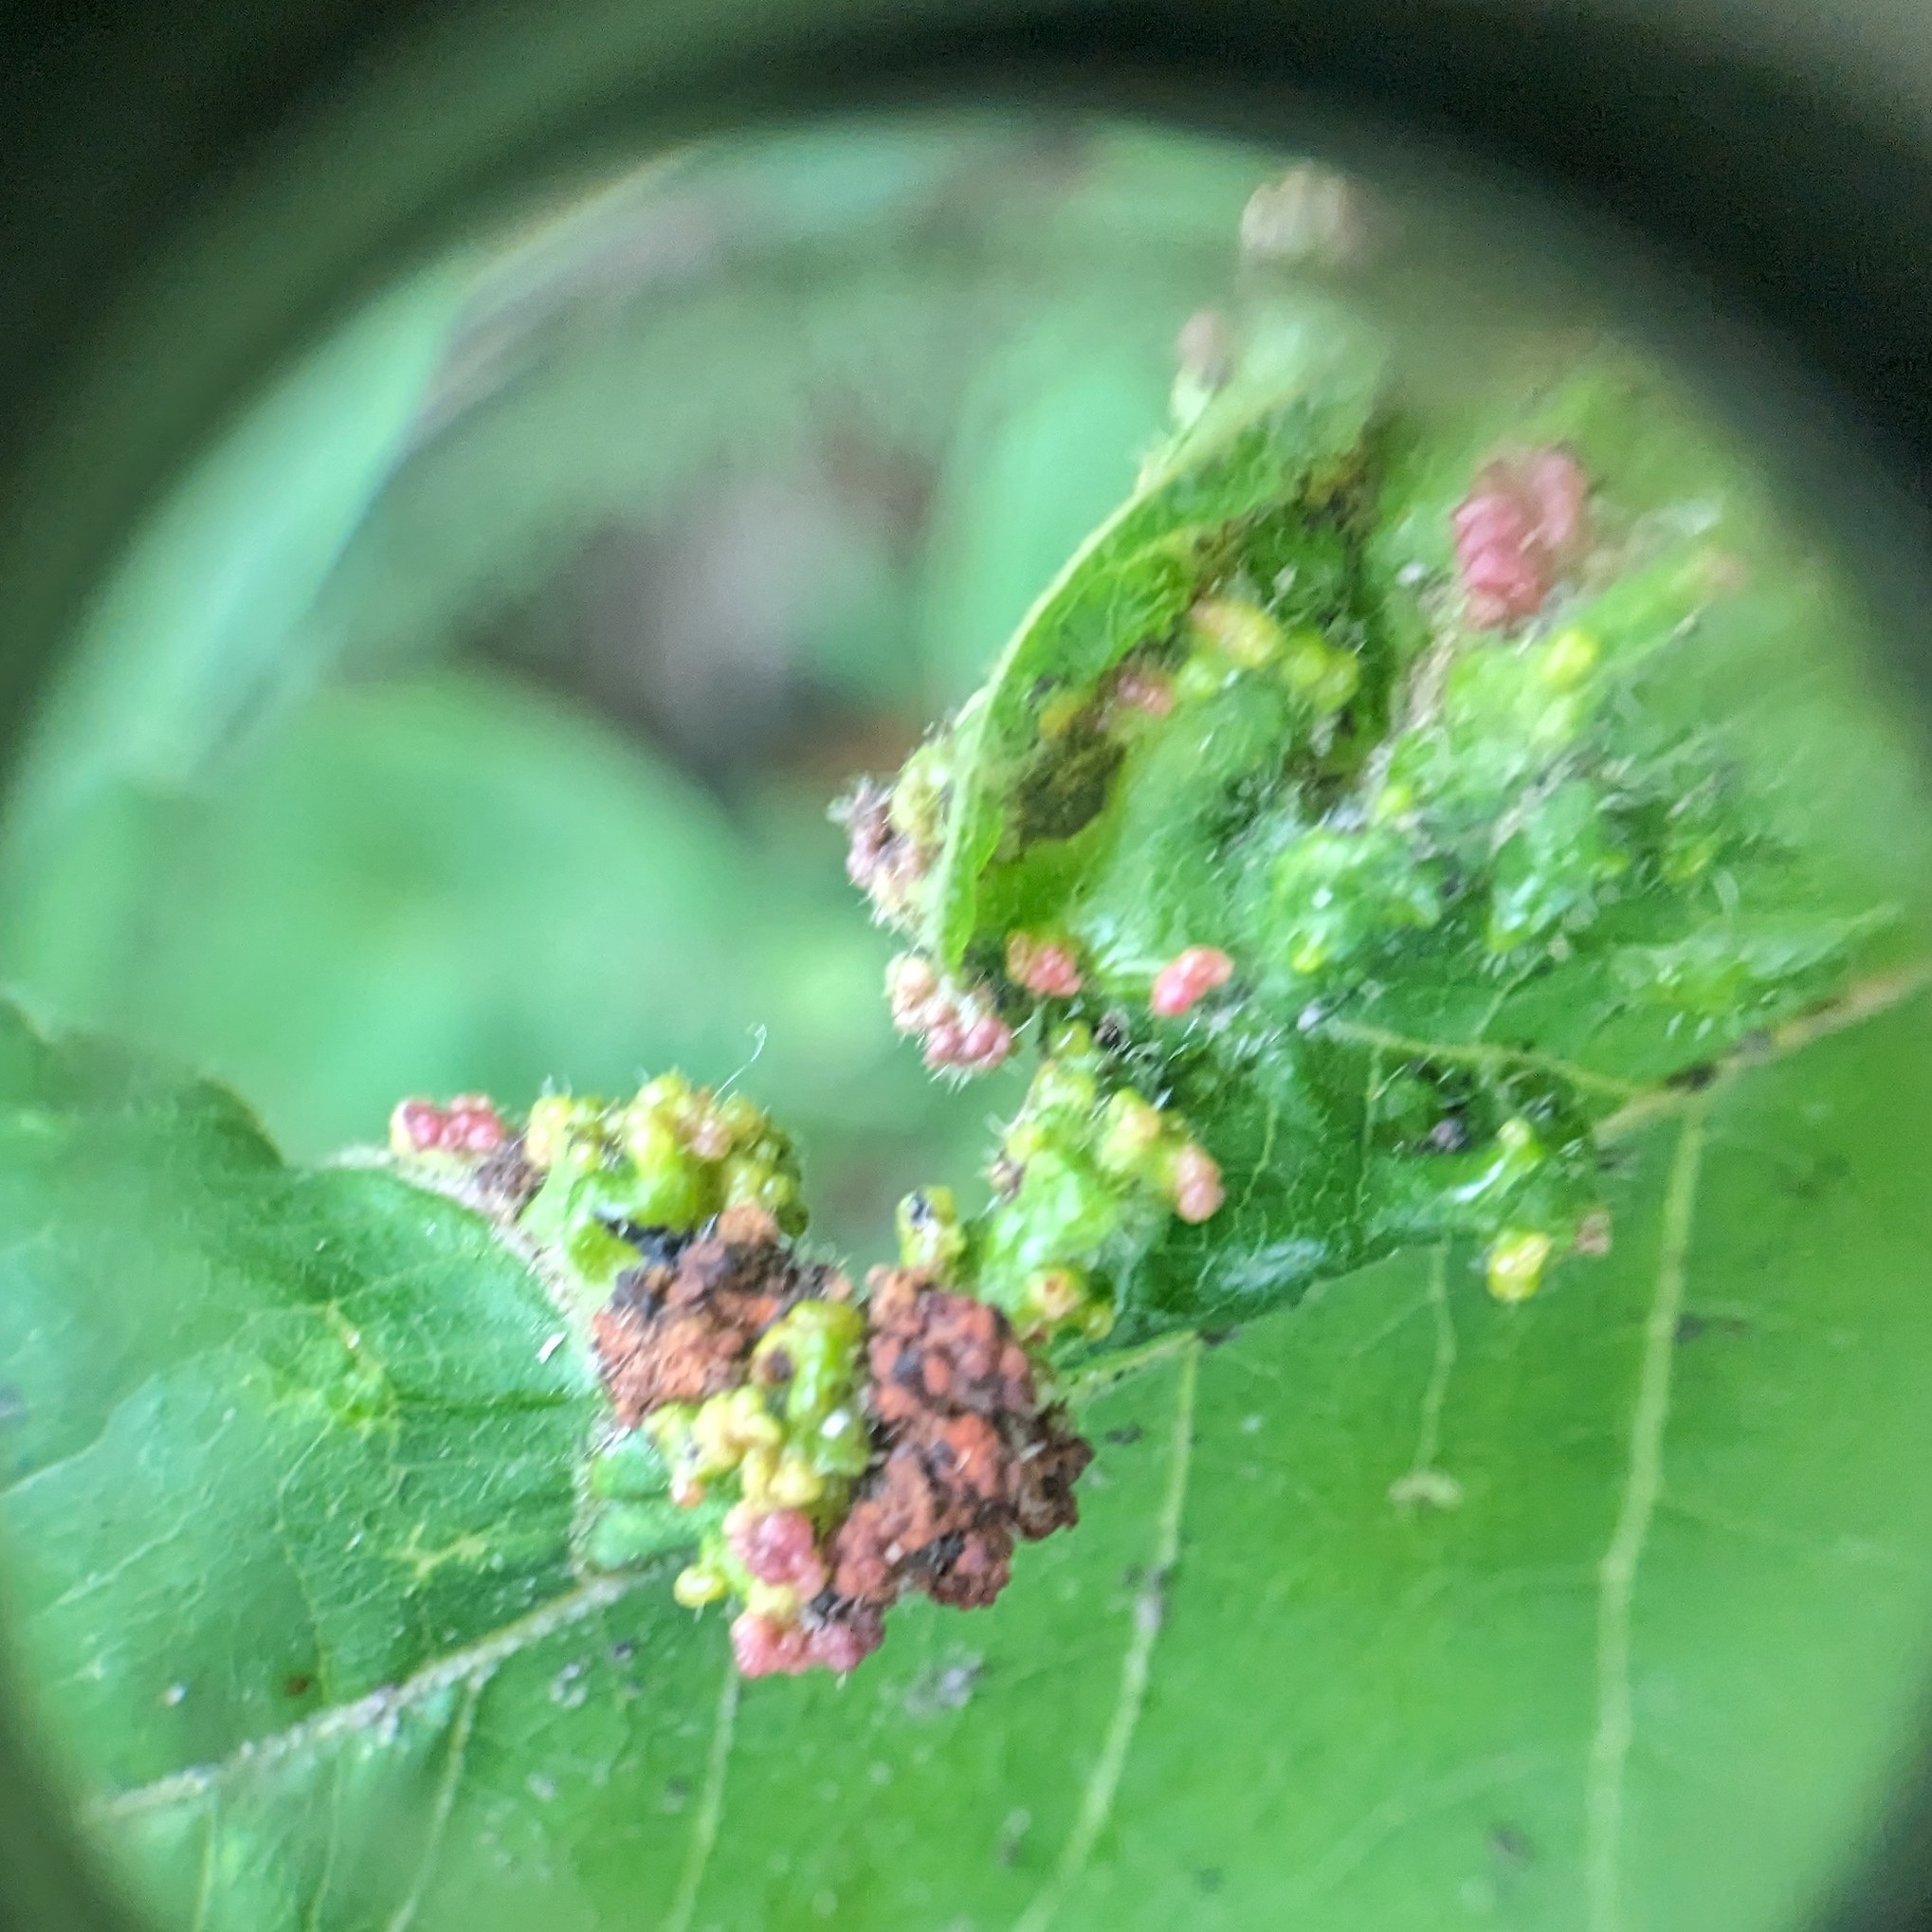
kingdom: Animalia
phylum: Arthropoda
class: Arachnida
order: Trombidiformes
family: Eriophyidae
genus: Aculops
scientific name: Aculops
